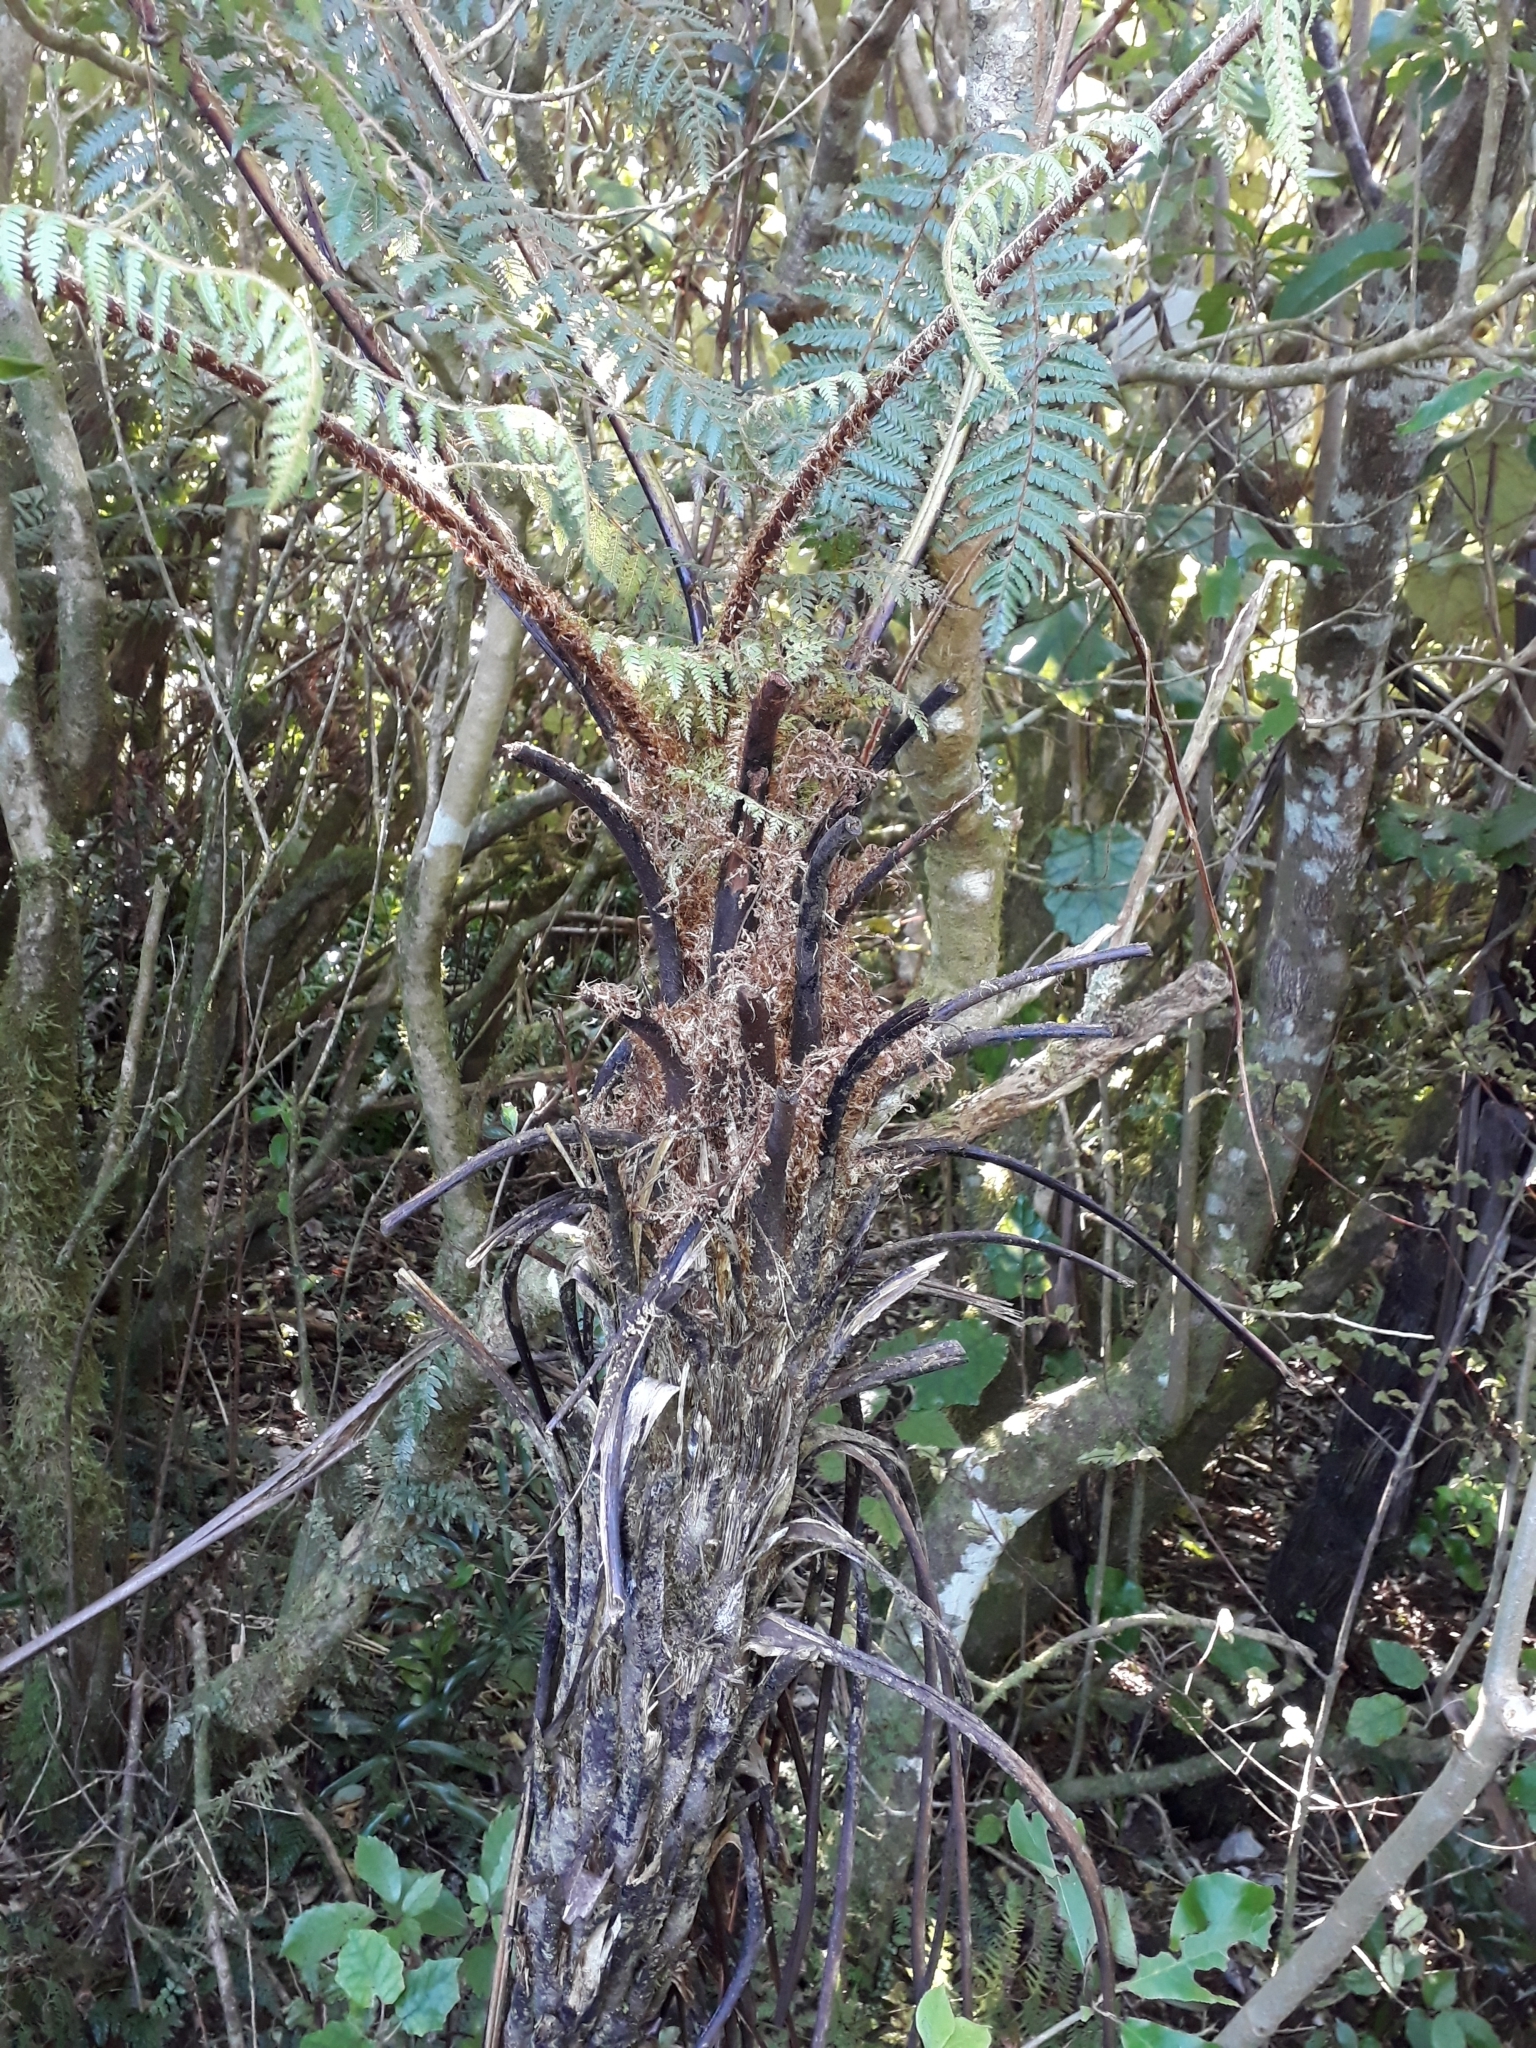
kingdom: Plantae
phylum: Tracheophyta
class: Polypodiopsida
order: Cyatheales
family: Cyatheaceae
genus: Cyathea
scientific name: Cyathea cunninghamii
